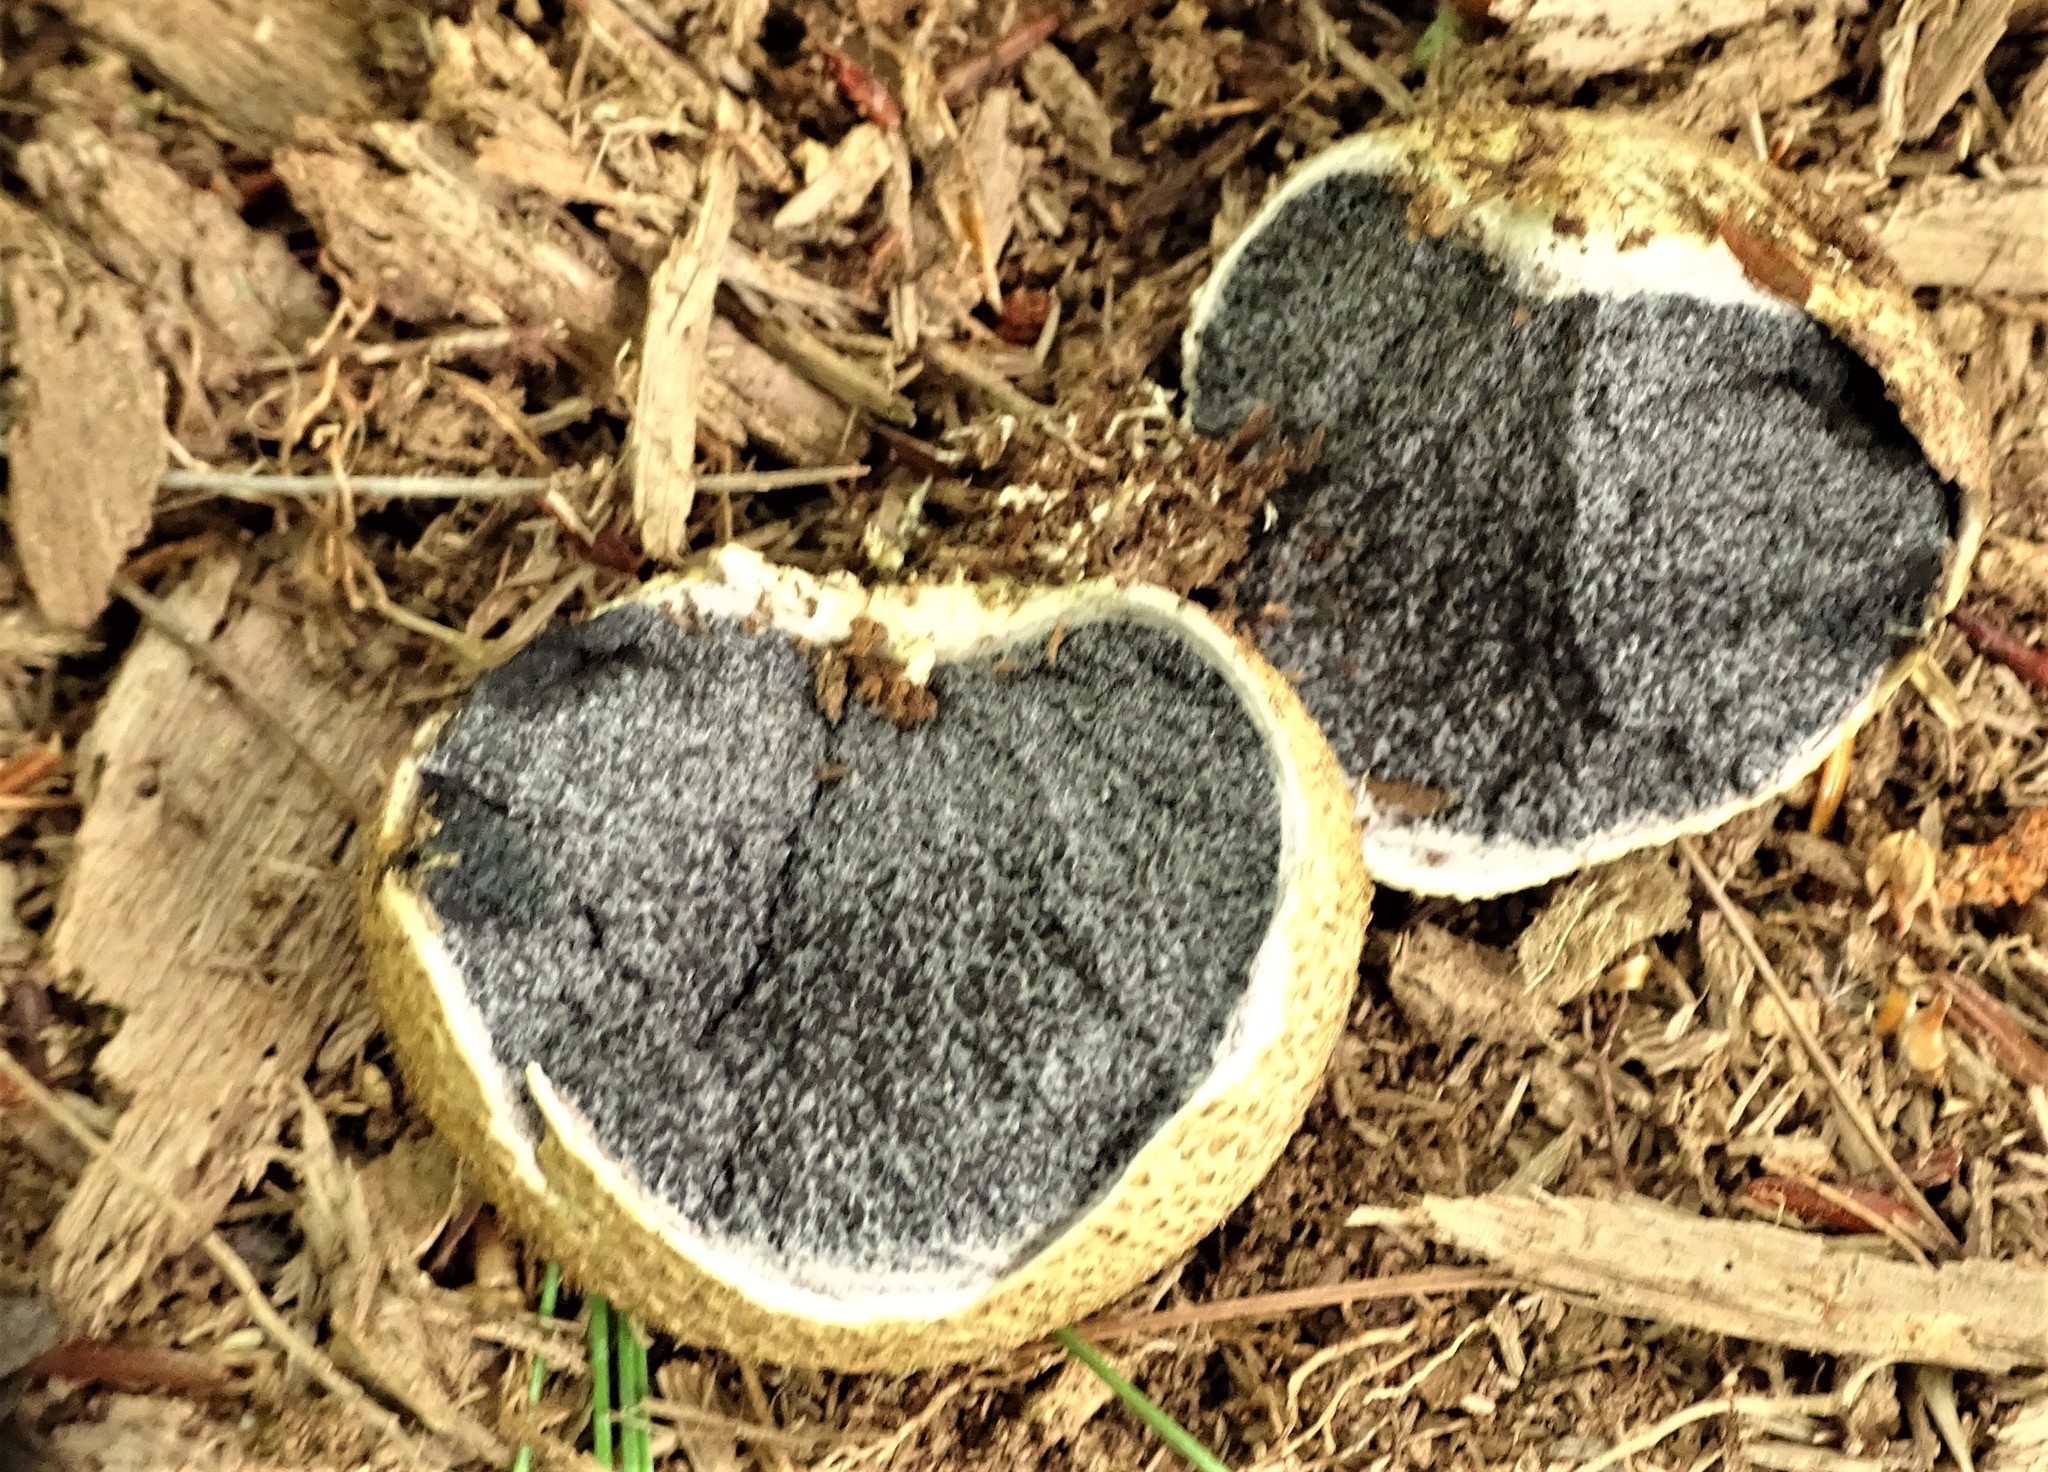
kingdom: Fungi
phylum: Basidiomycota
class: Agaricomycetes
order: Boletales
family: Sclerodermataceae
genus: Scleroderma
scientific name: Scleroderma citrinum
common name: Common earthball
